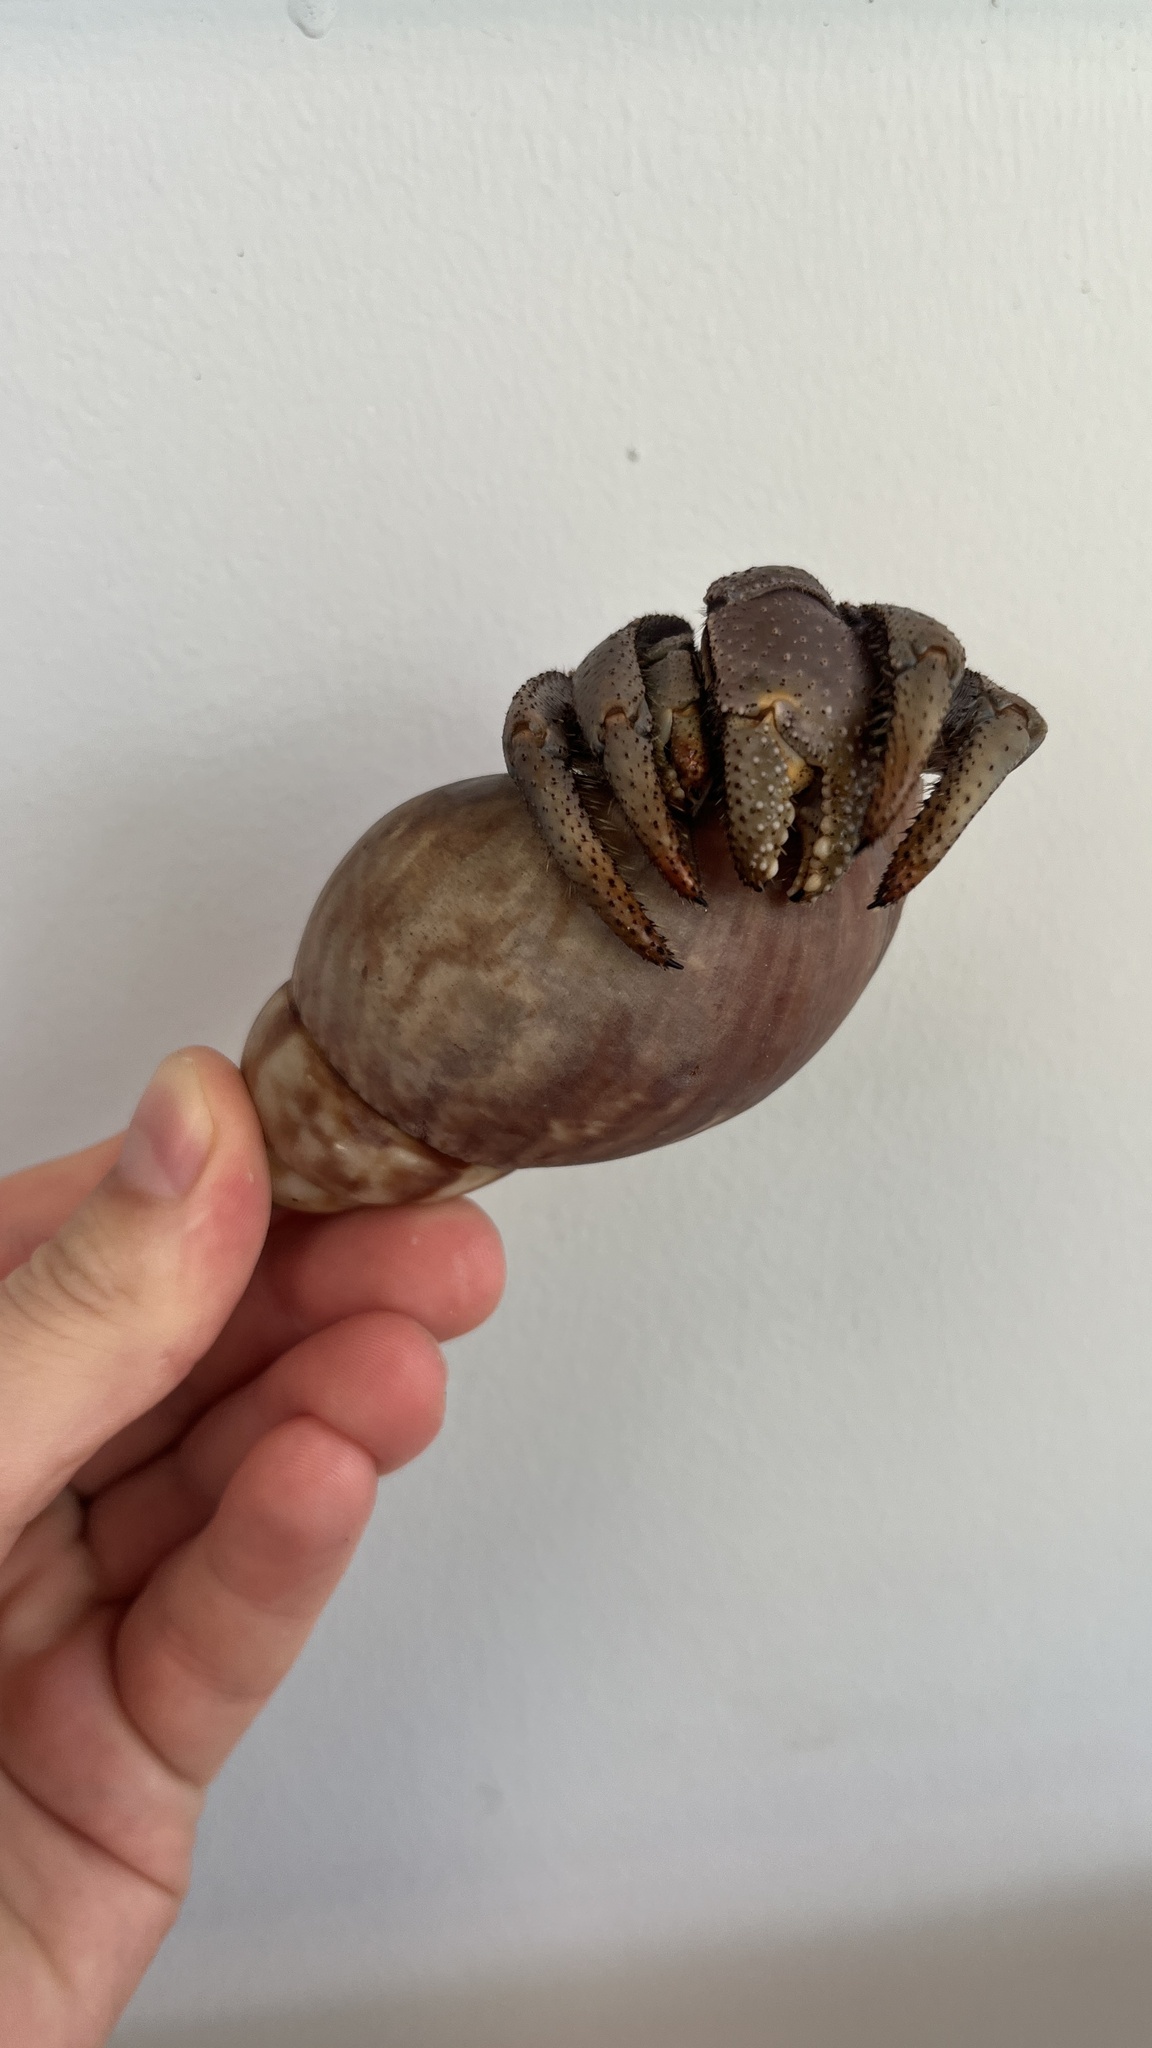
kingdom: Animalia
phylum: Arthropoda
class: Malacostraca
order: Decapoda
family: Coenobitidae
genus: Coenobita
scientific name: Coenobita violascens
